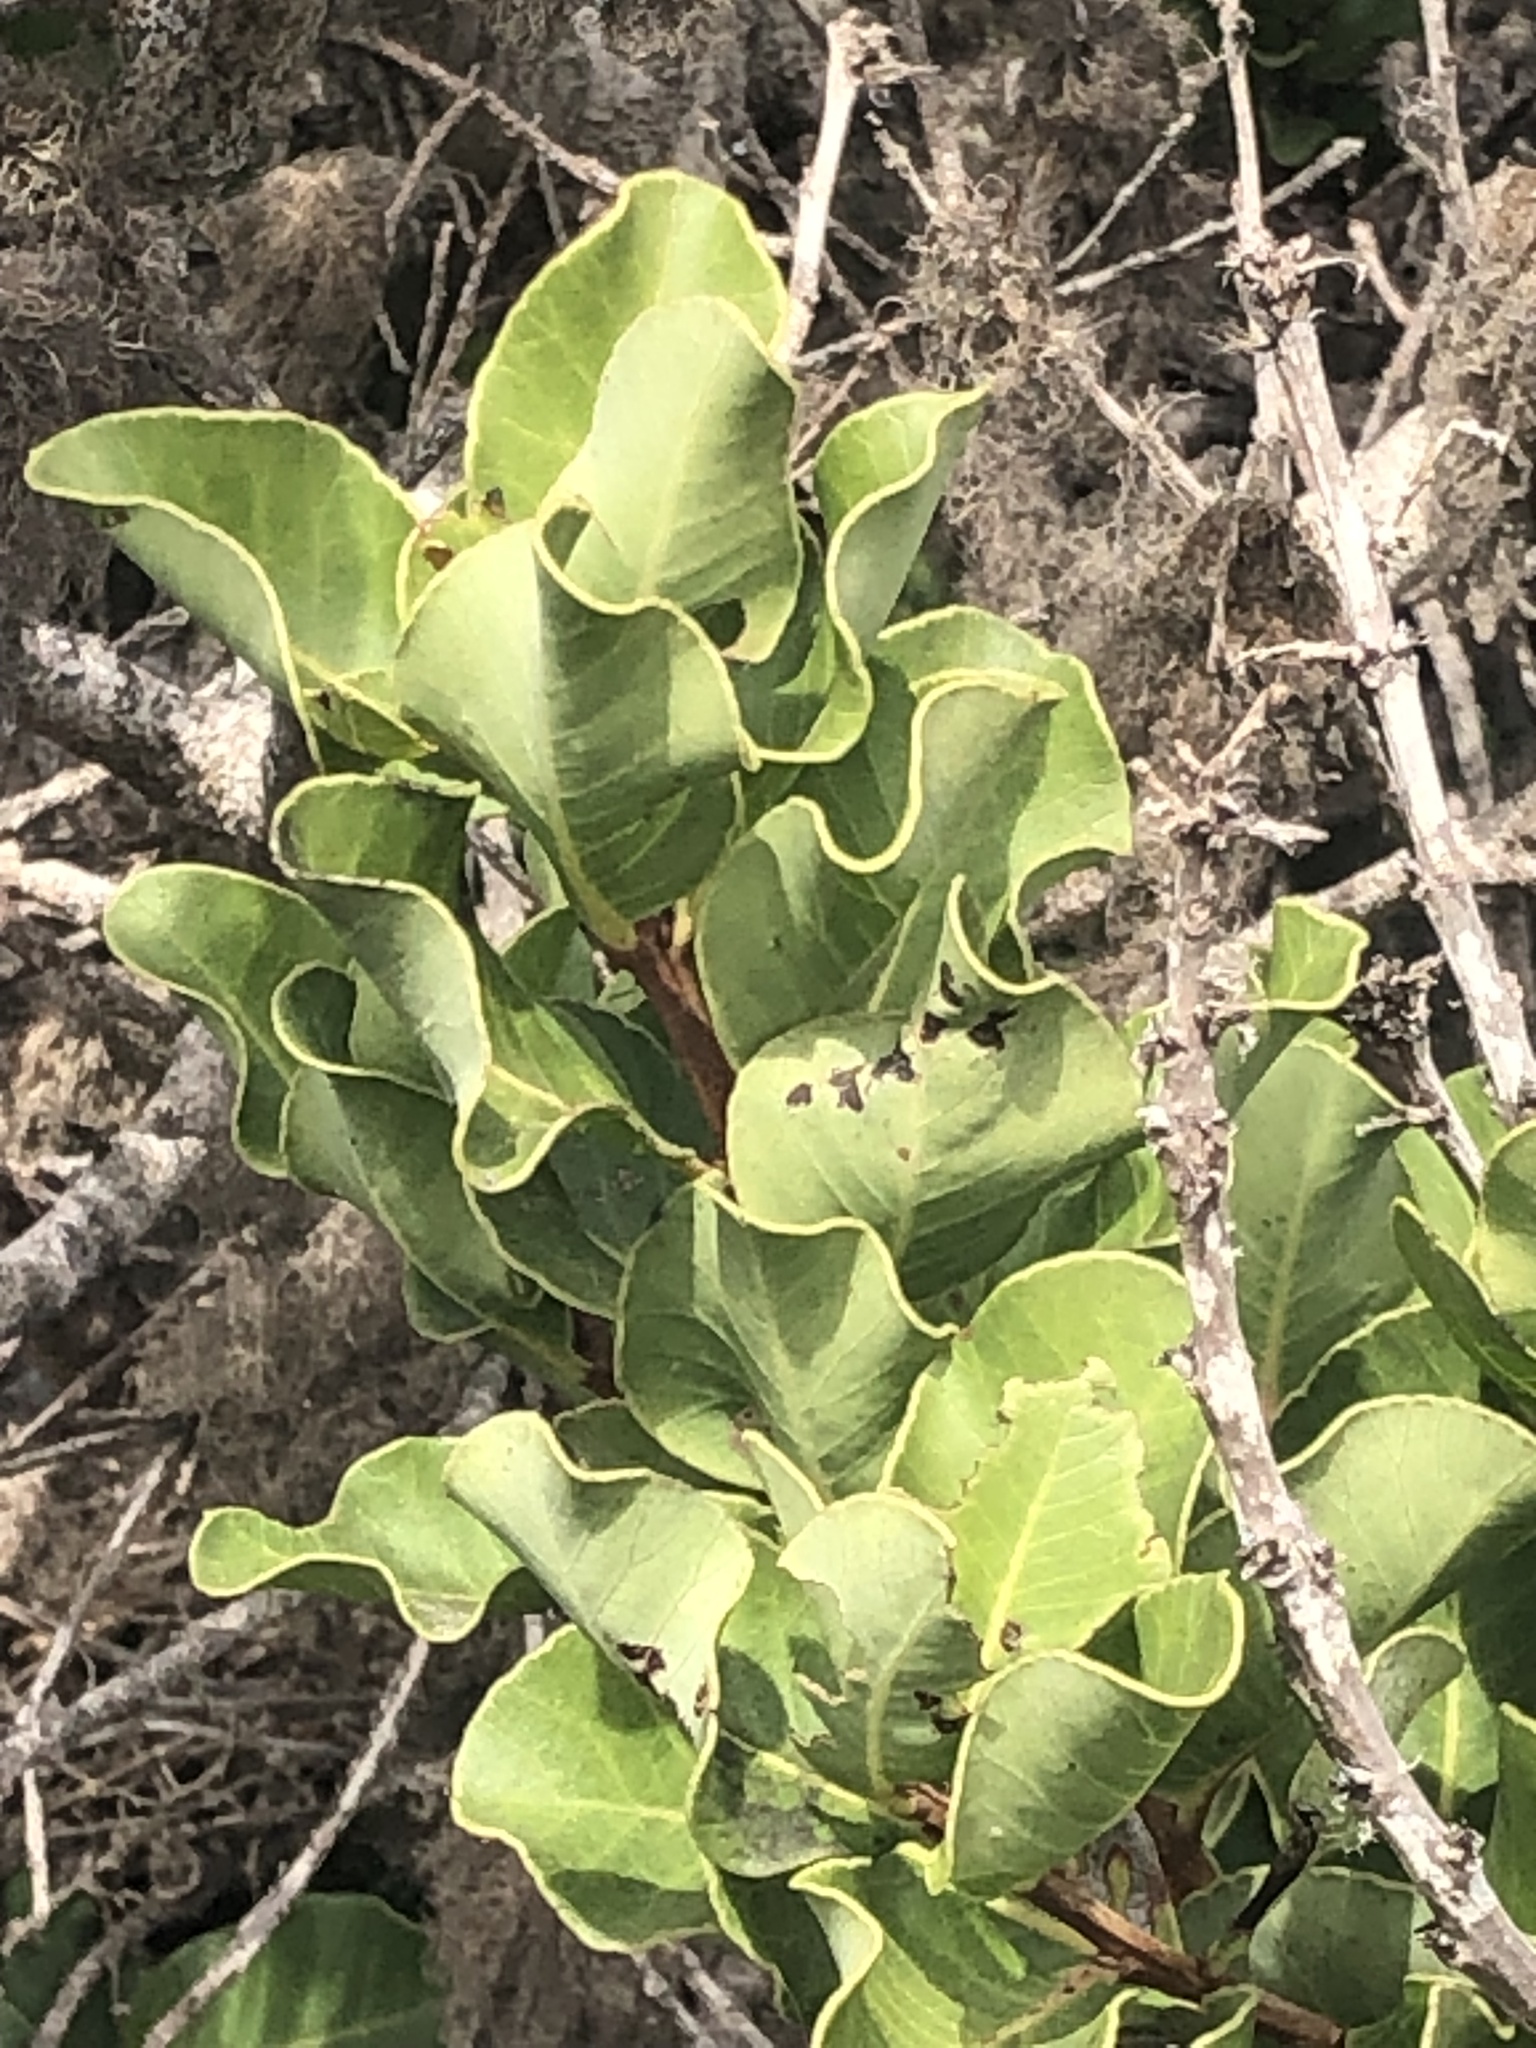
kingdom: Plantae
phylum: Tracheophyta
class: Magnoliopsida
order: Sapindales
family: Anacardiaceae
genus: Lithraea
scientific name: Lithraea caustica
